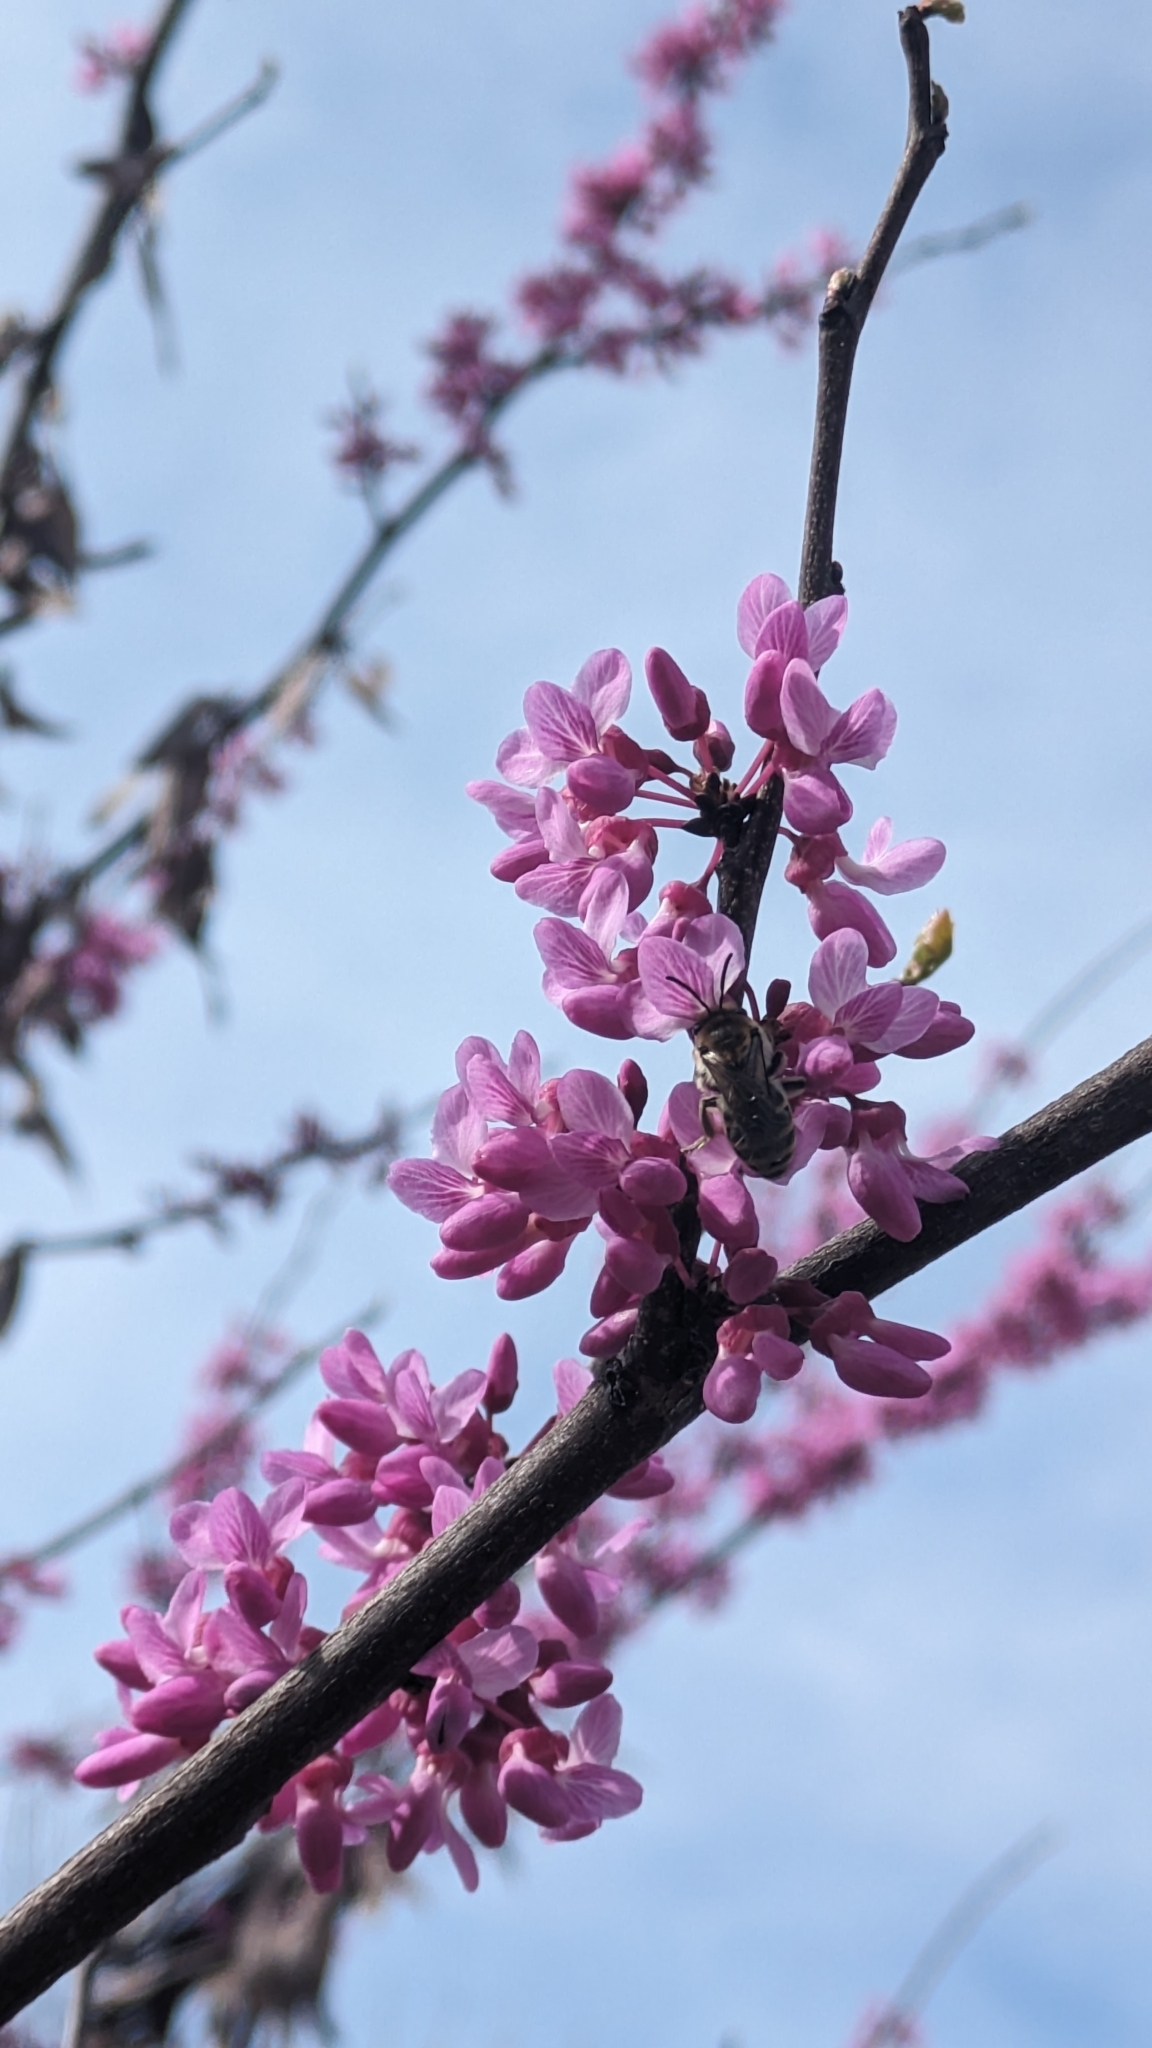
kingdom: Animalia
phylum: Arthropoda
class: Insecta
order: Hymenoptera
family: Colletidae
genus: Colletes
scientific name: Colletes inaequalis
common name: Unequal cellophane bee
